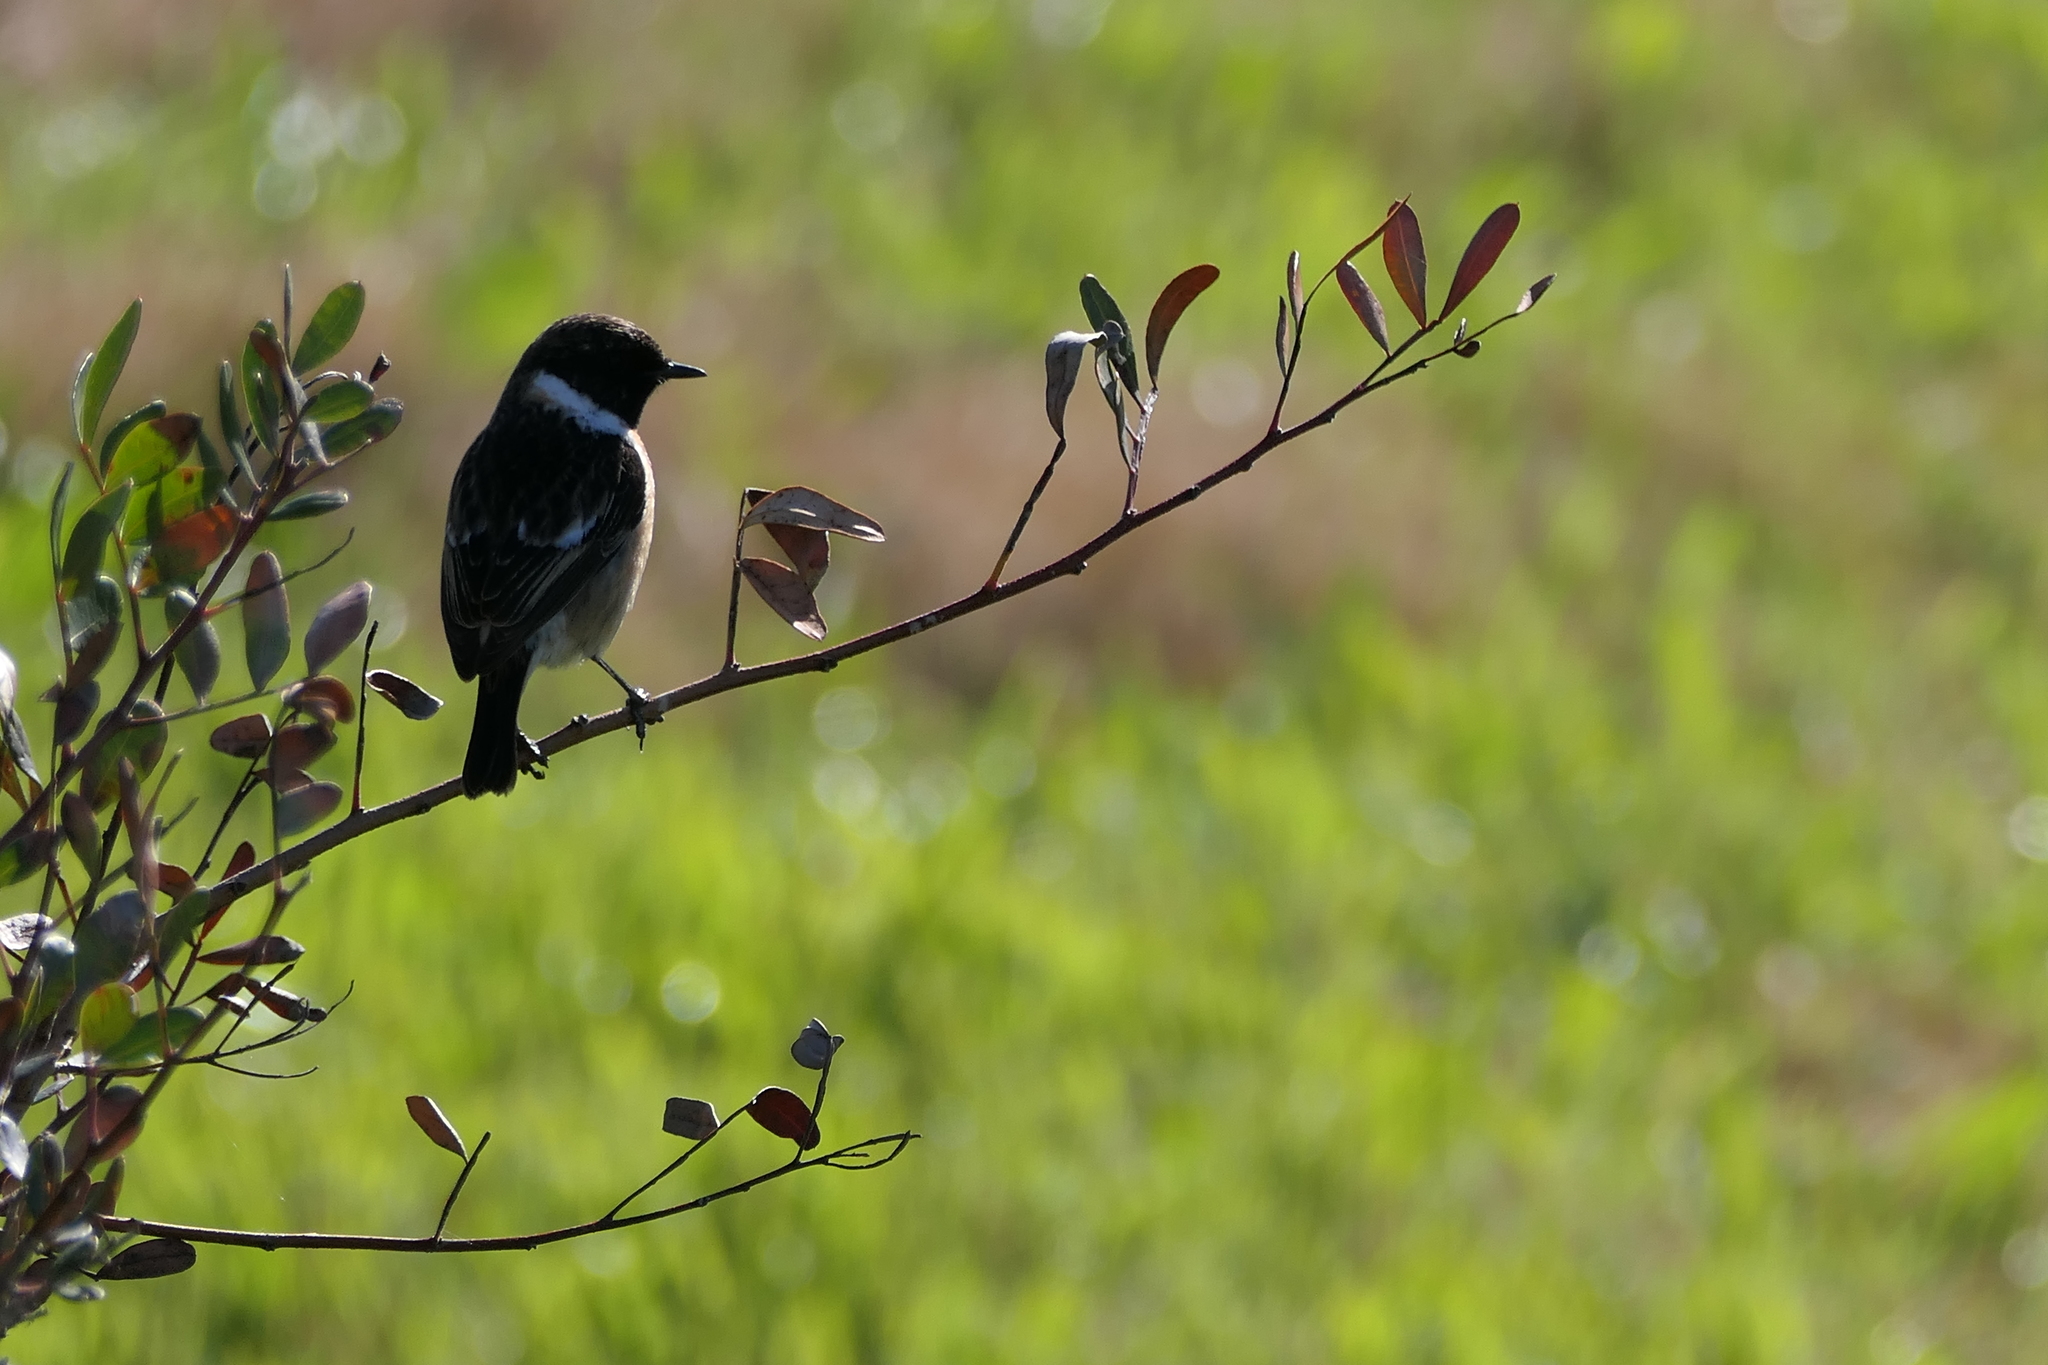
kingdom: Animalia
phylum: Chordata
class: Aves
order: Passeriformes
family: Muscicapidae
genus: Saxicola
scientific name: Saxicola rubicola
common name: European stonechat
